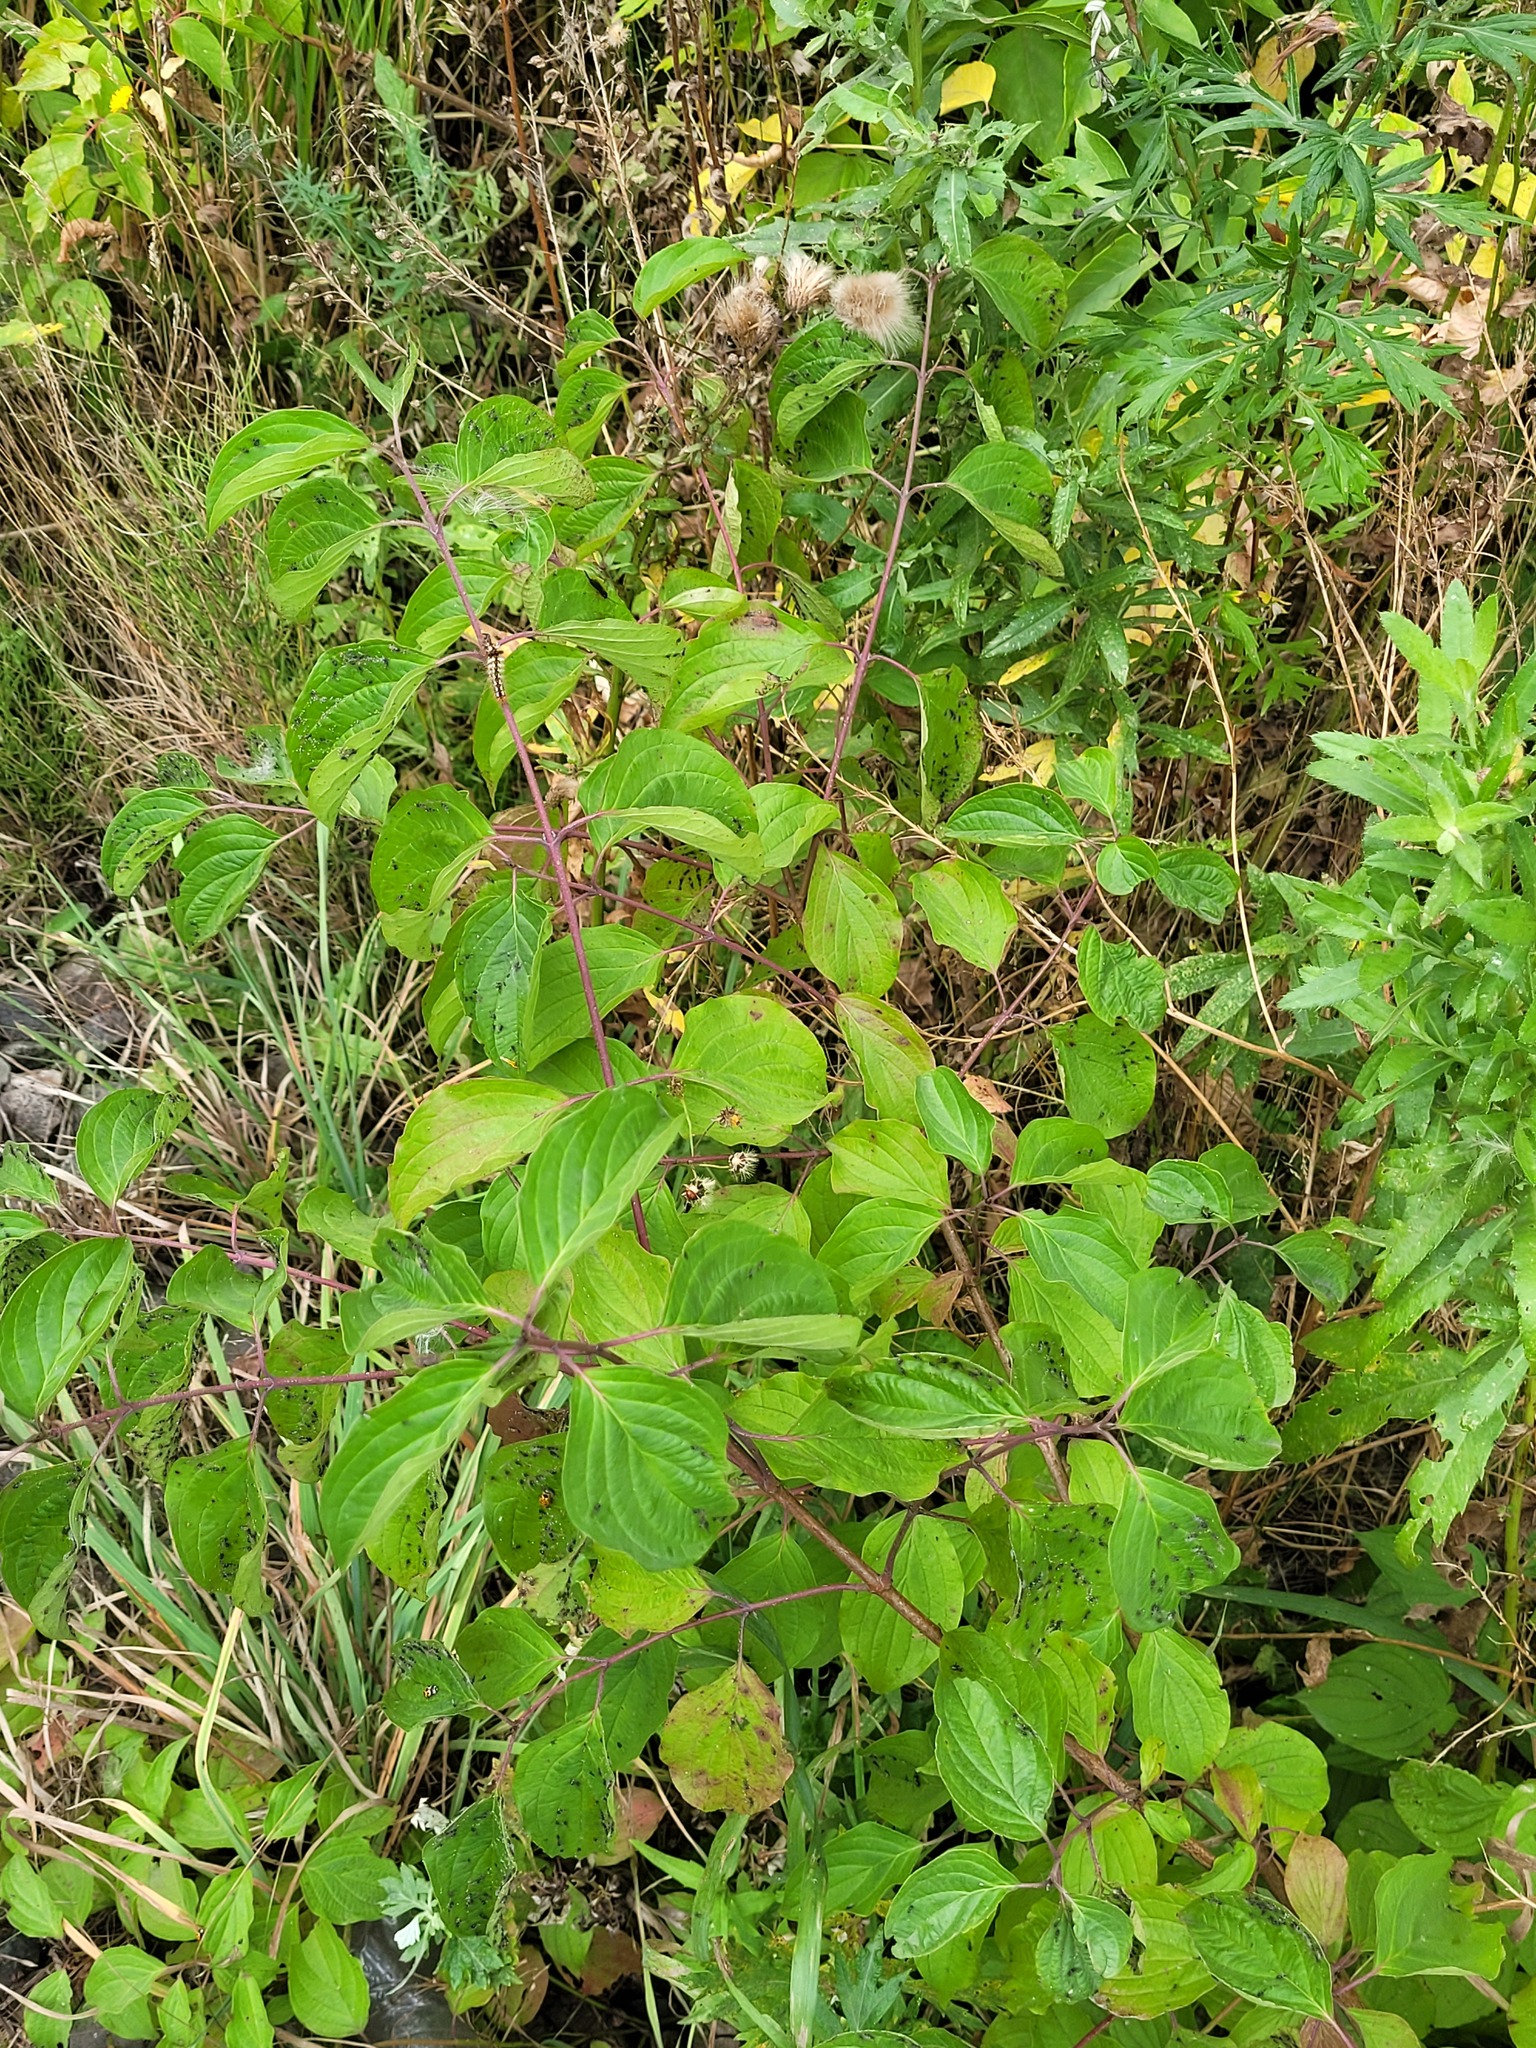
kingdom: Plantae
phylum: Tracheophyta
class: Magnoliopsida
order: Cornales
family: Cornaceae
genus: Cornus
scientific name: Cornus sanguinea
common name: Dogwood
